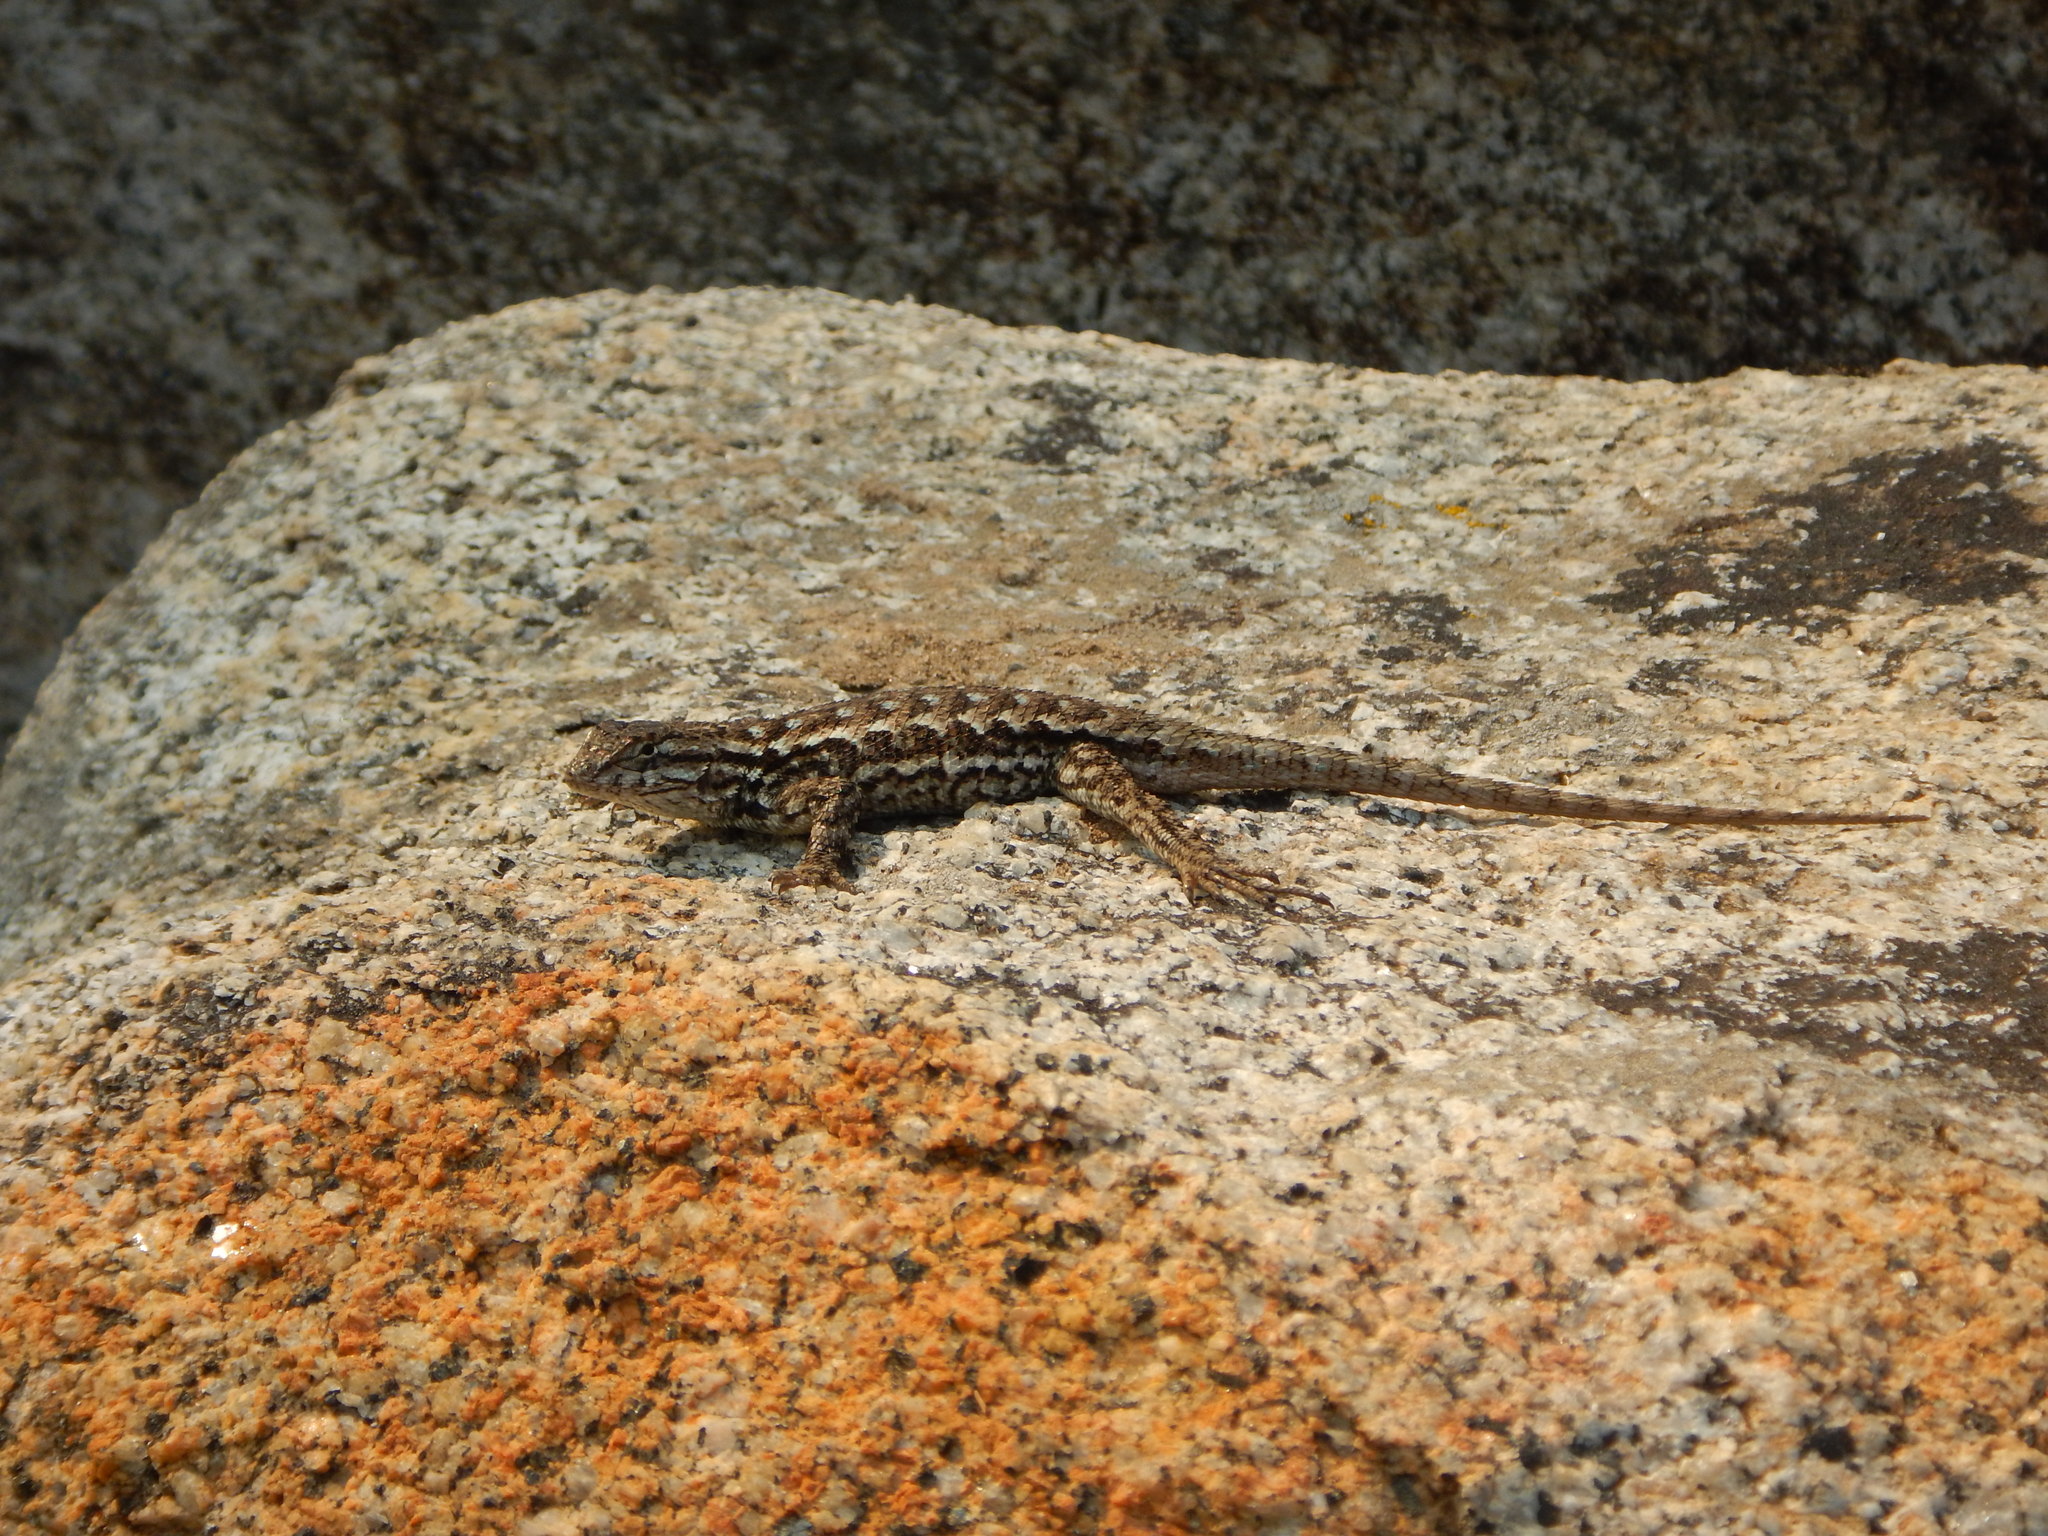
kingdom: Animalia
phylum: Chordata
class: Squamata
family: Phrynosomatidae
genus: Sceloporus
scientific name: Sceloporus occidentalis
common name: Western fence lizard
